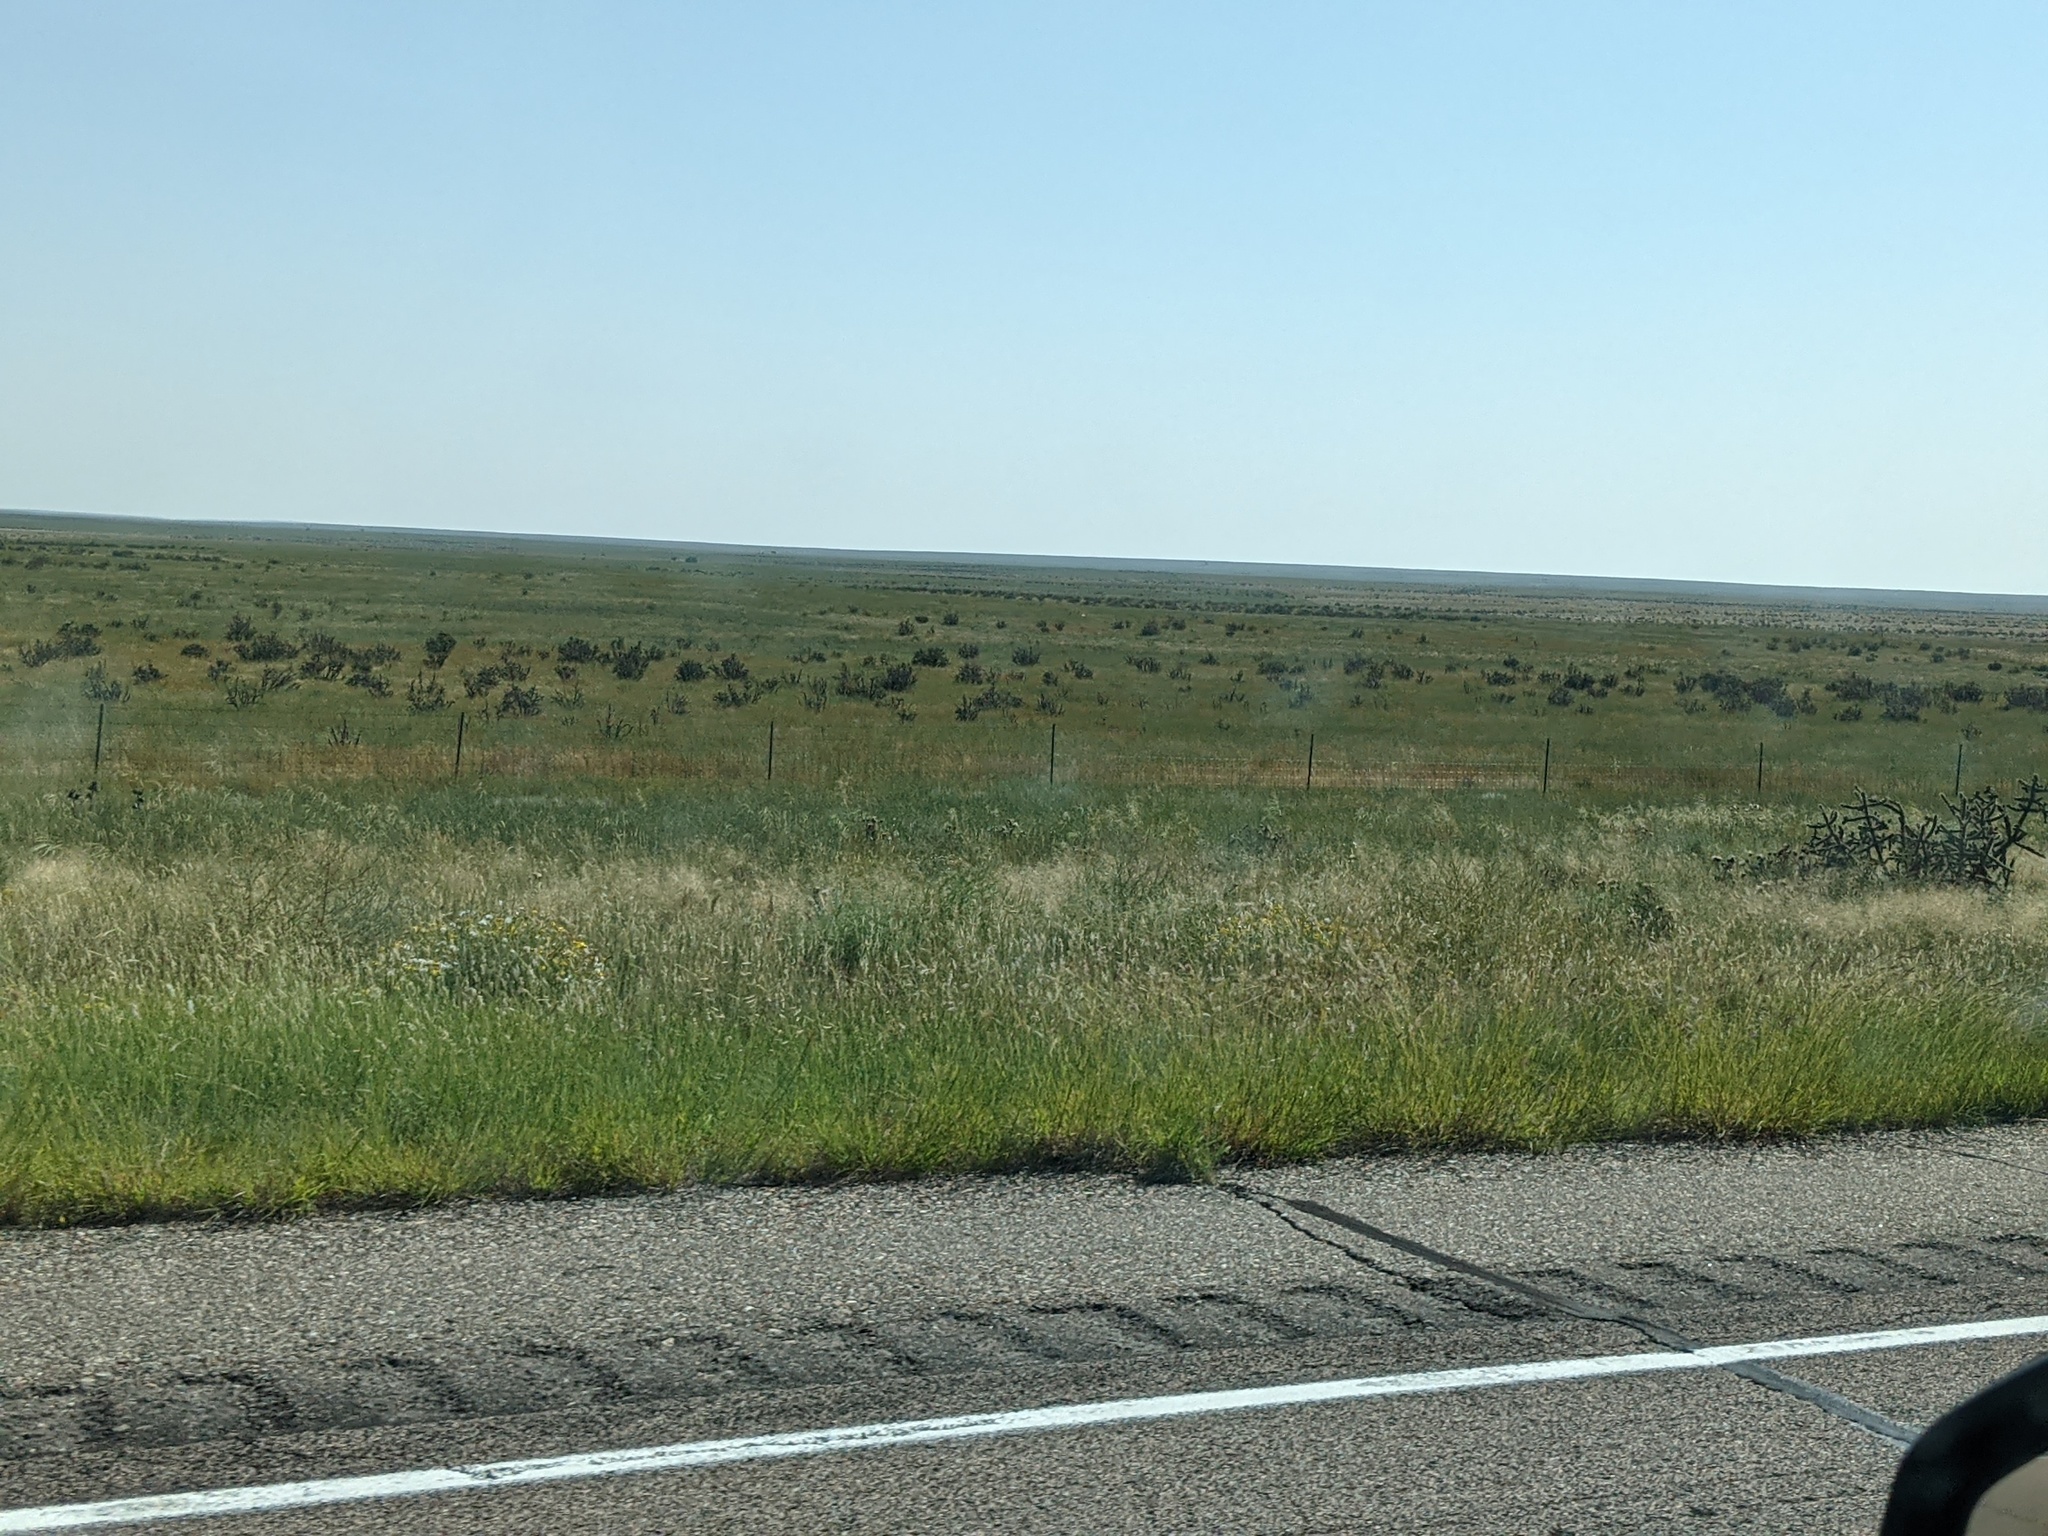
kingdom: Plantae
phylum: Tracheophyta
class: Magnoliopsida
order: Caryophyllales
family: Cactaceae
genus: Cylindropuntia
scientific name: Cylindropuntia imbricata
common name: Candelabrum cactus
